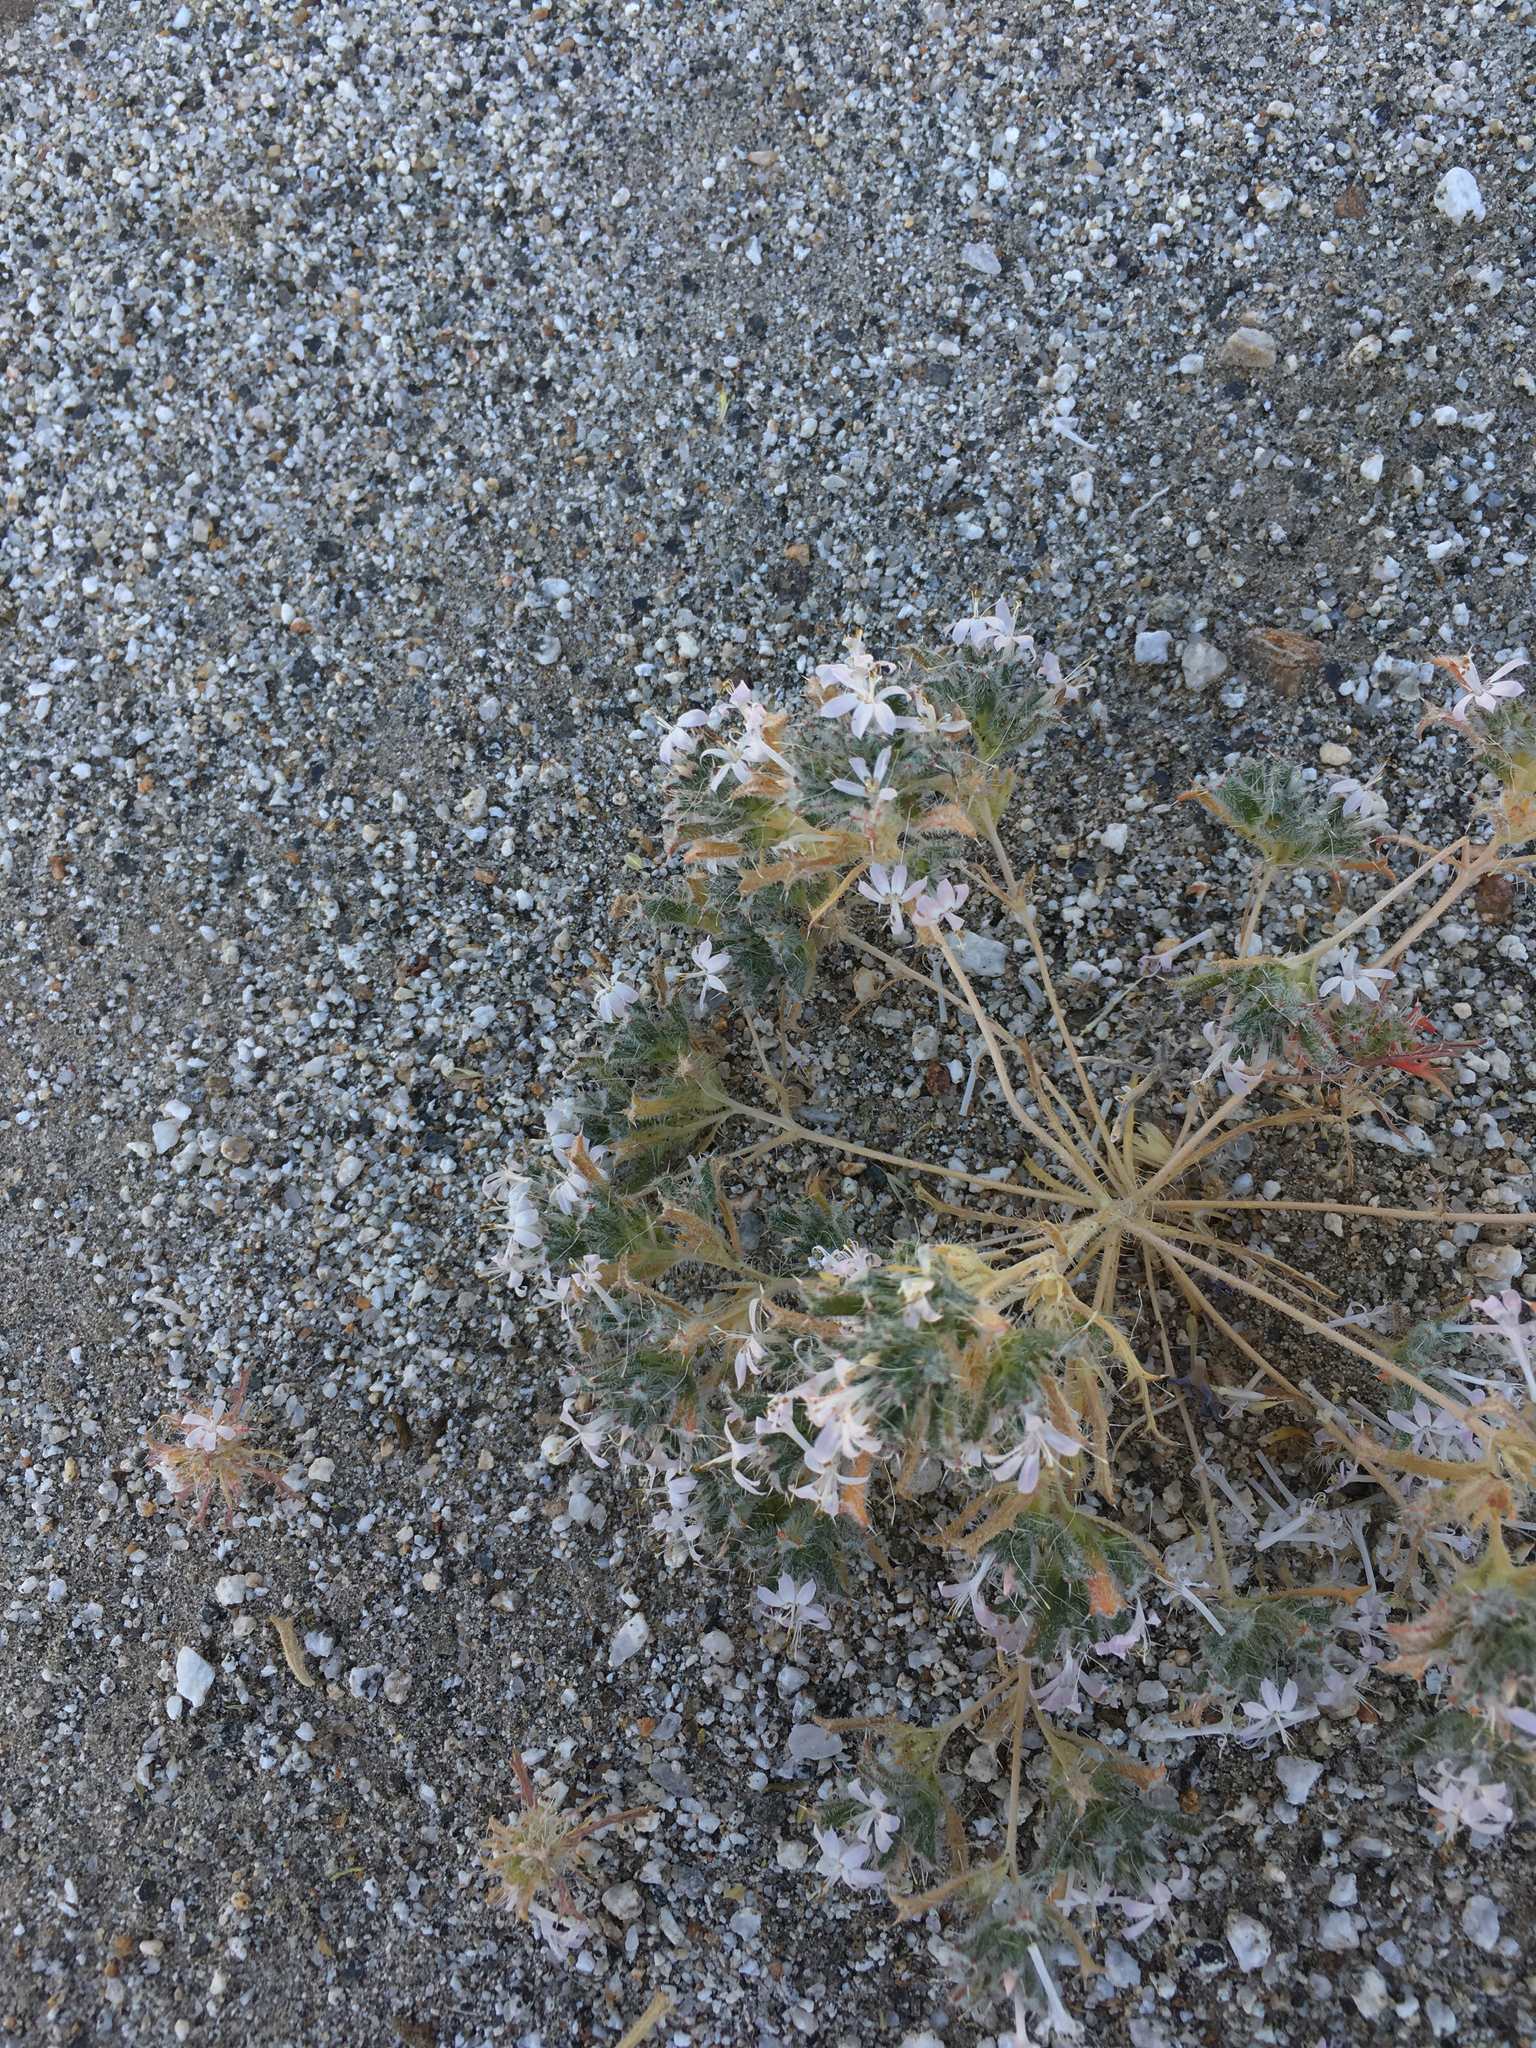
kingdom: Plantae
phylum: Tracheophyta
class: Magnoliopsida
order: Ericales
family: Polemoniaceae
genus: Loeseliastrum
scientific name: Loeseliastrum matthewsii
